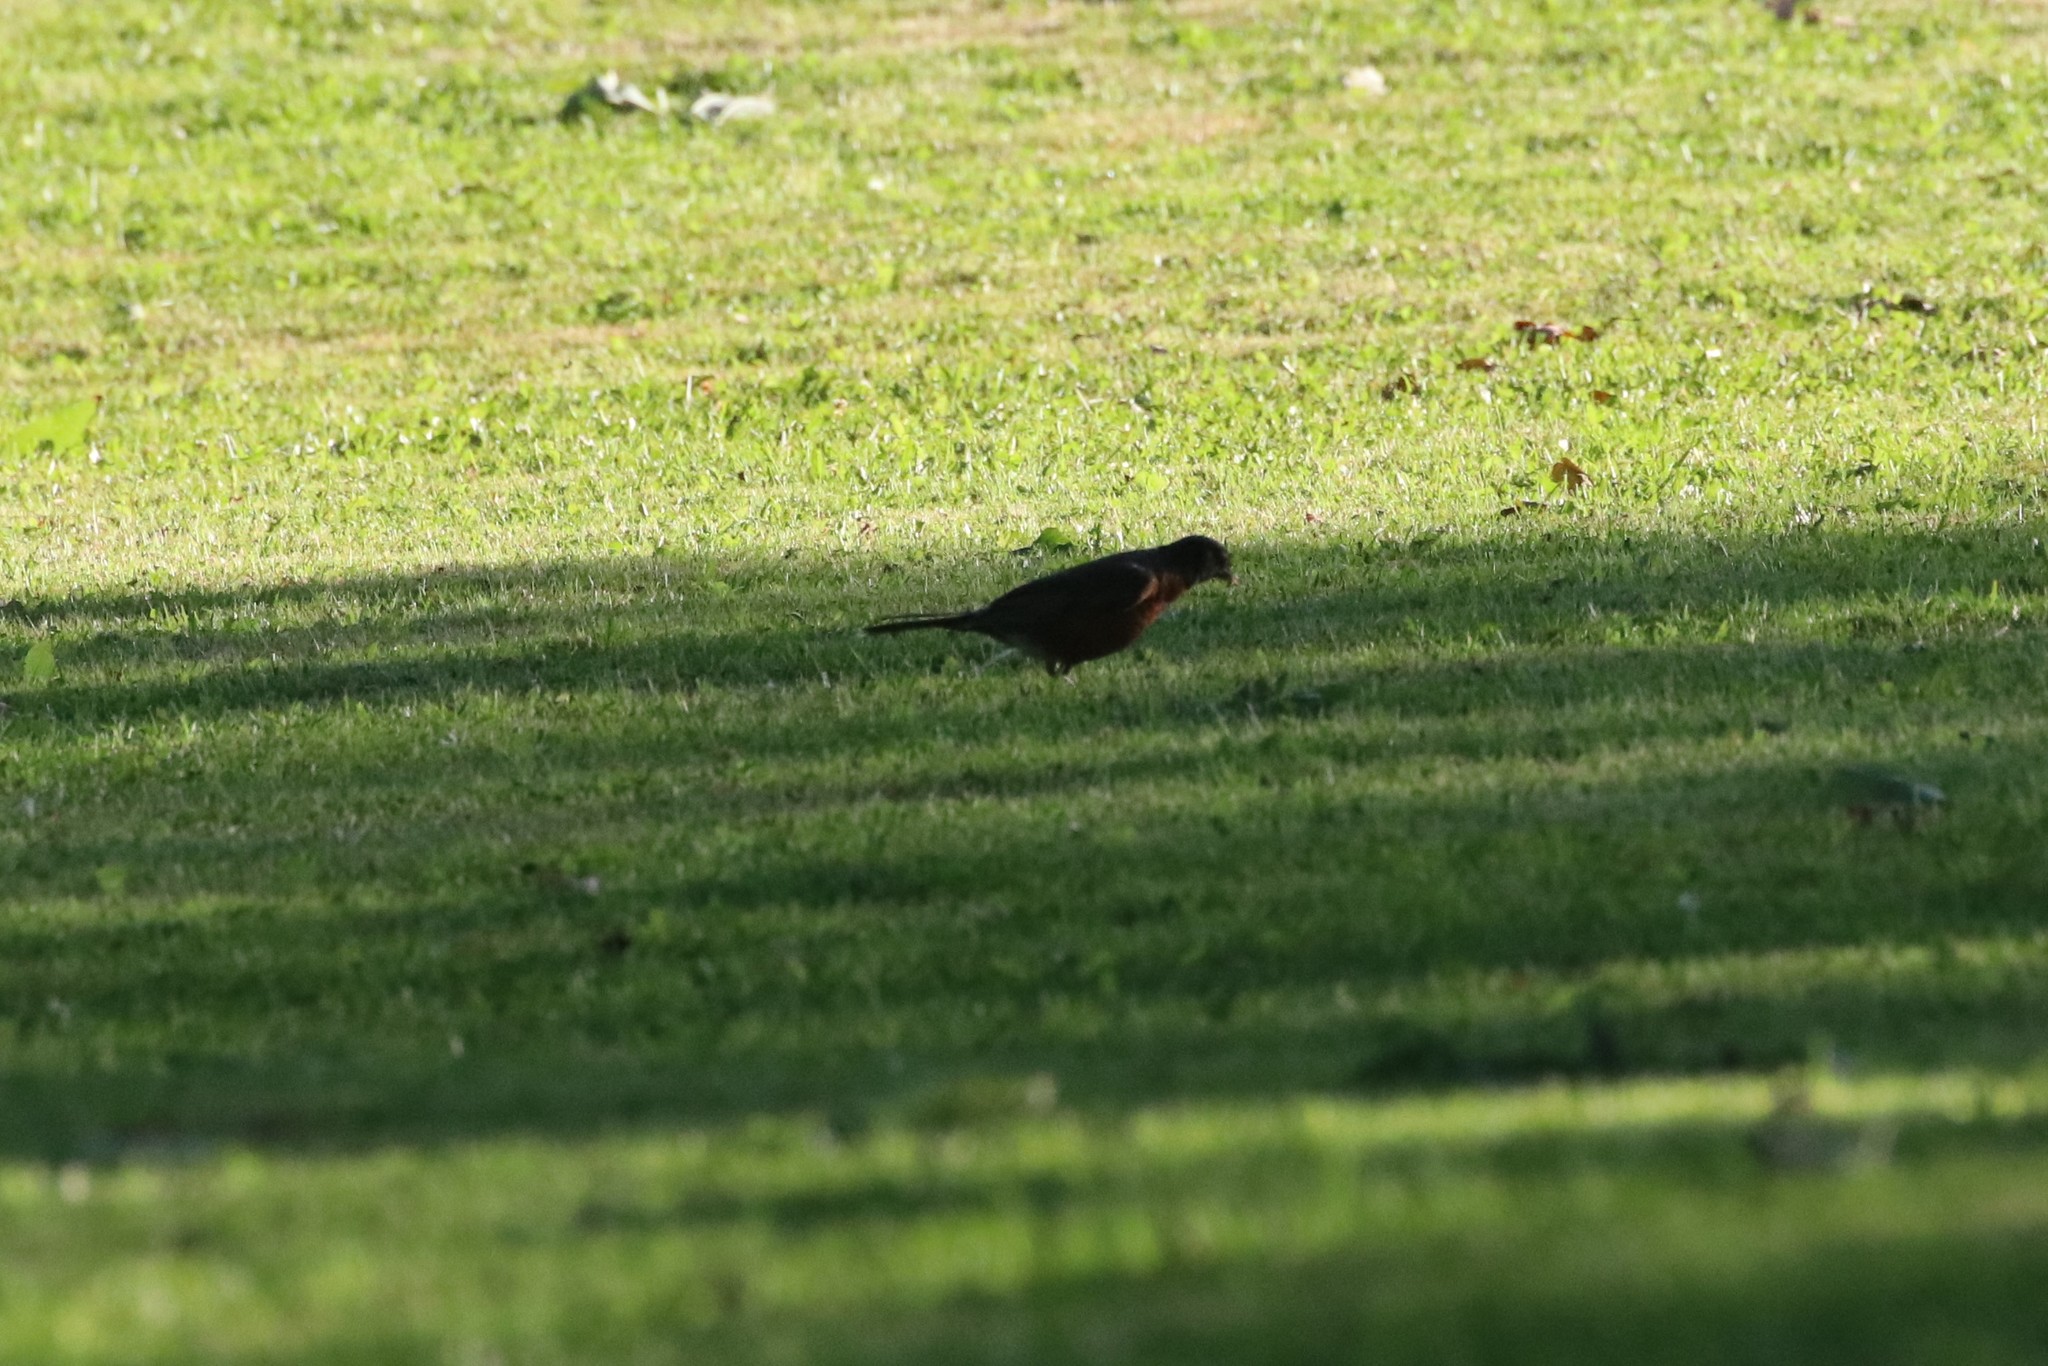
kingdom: Animalia
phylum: Chordata
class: Aves
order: Passeriformes
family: Turdidae
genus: Turdus
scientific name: Turdus migratorius
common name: American robin
